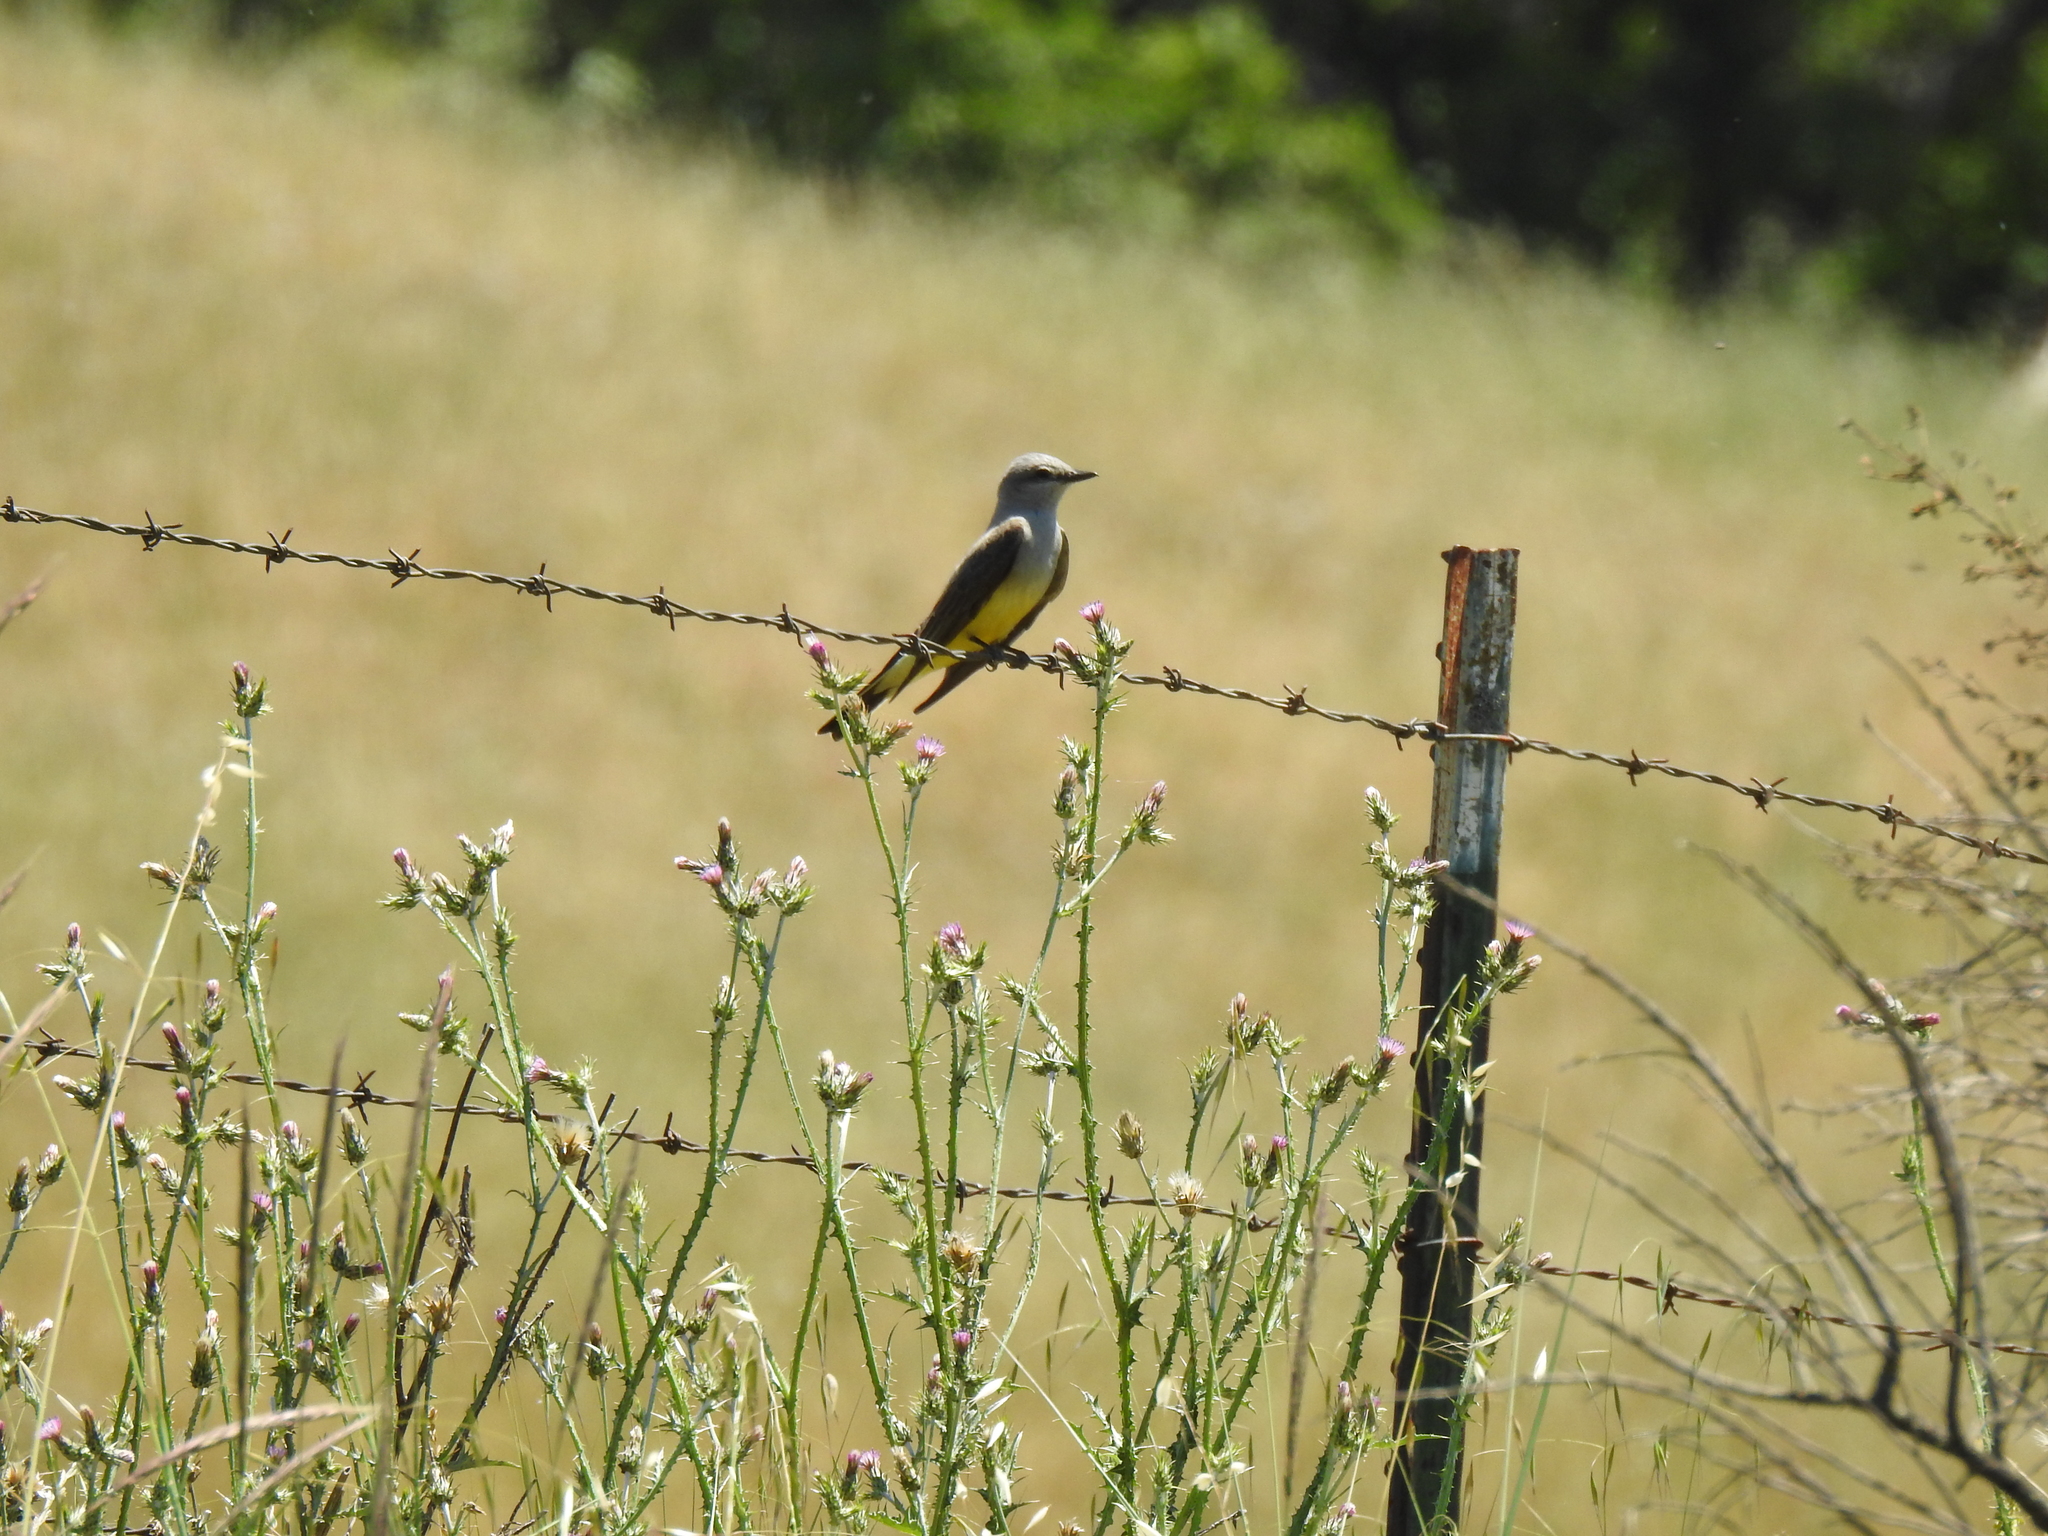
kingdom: Animalia
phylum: Chordata
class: Aves
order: Passeriformes
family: Tyrannidae
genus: Tyrannus
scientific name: Tyrannus verticalis
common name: Western kingbird
